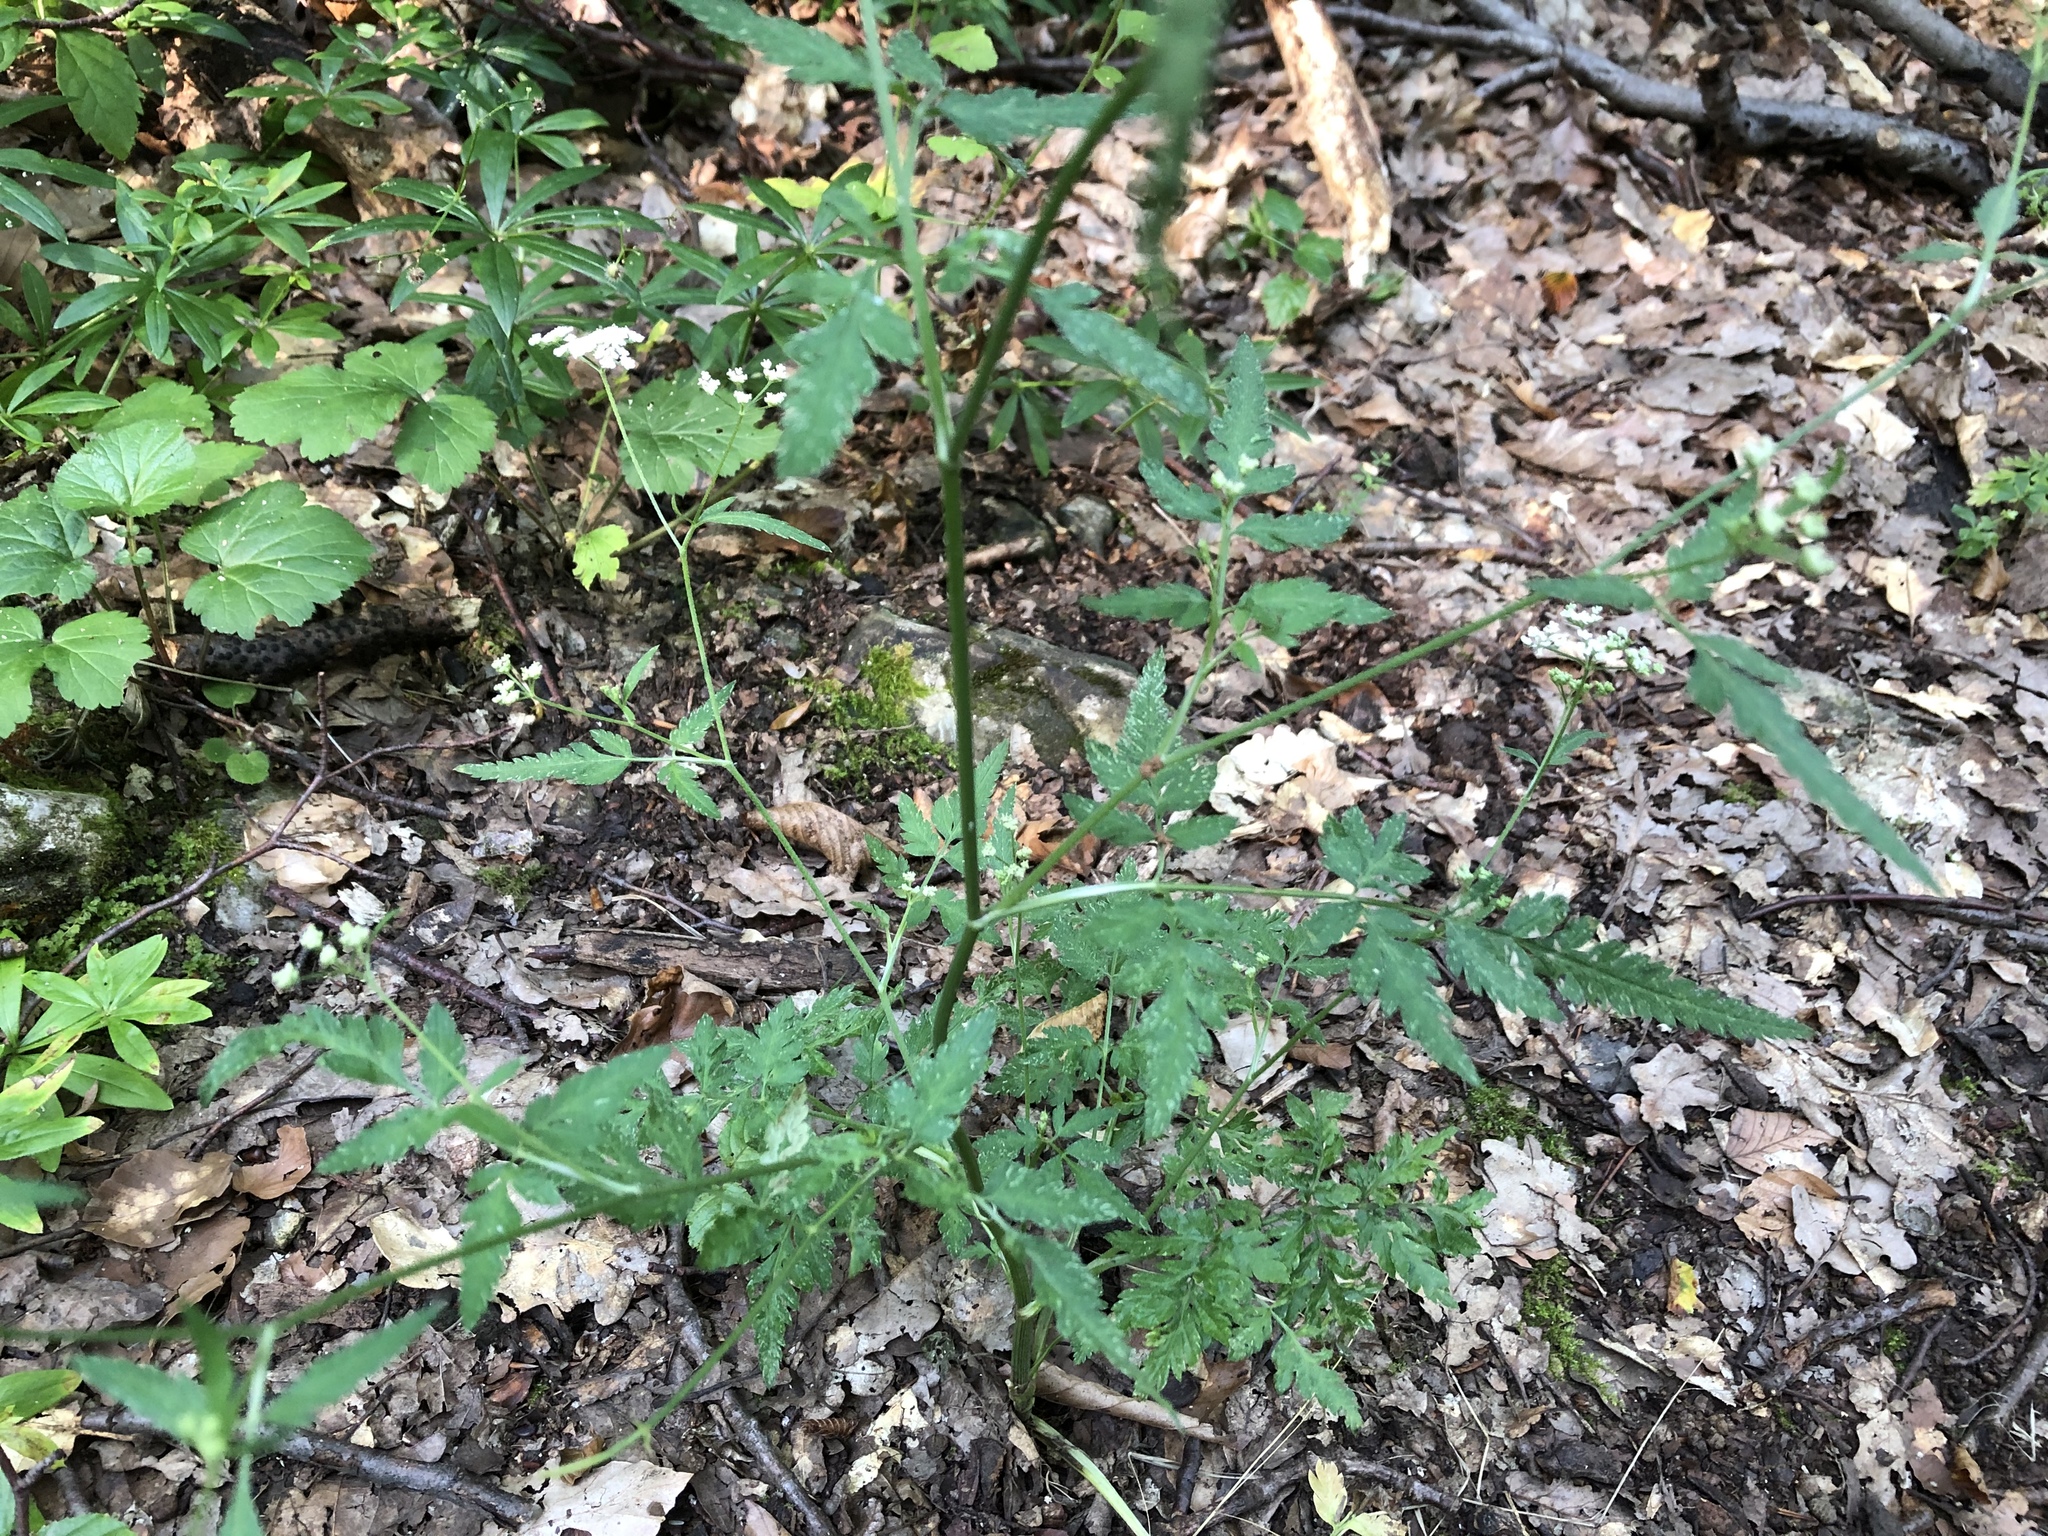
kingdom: Plantae
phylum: Tracheophyta
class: Magnoliopsida
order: Apiales
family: Apiaceae
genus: Torilis
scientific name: Torilis japonica
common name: Upright hedge-parsley
